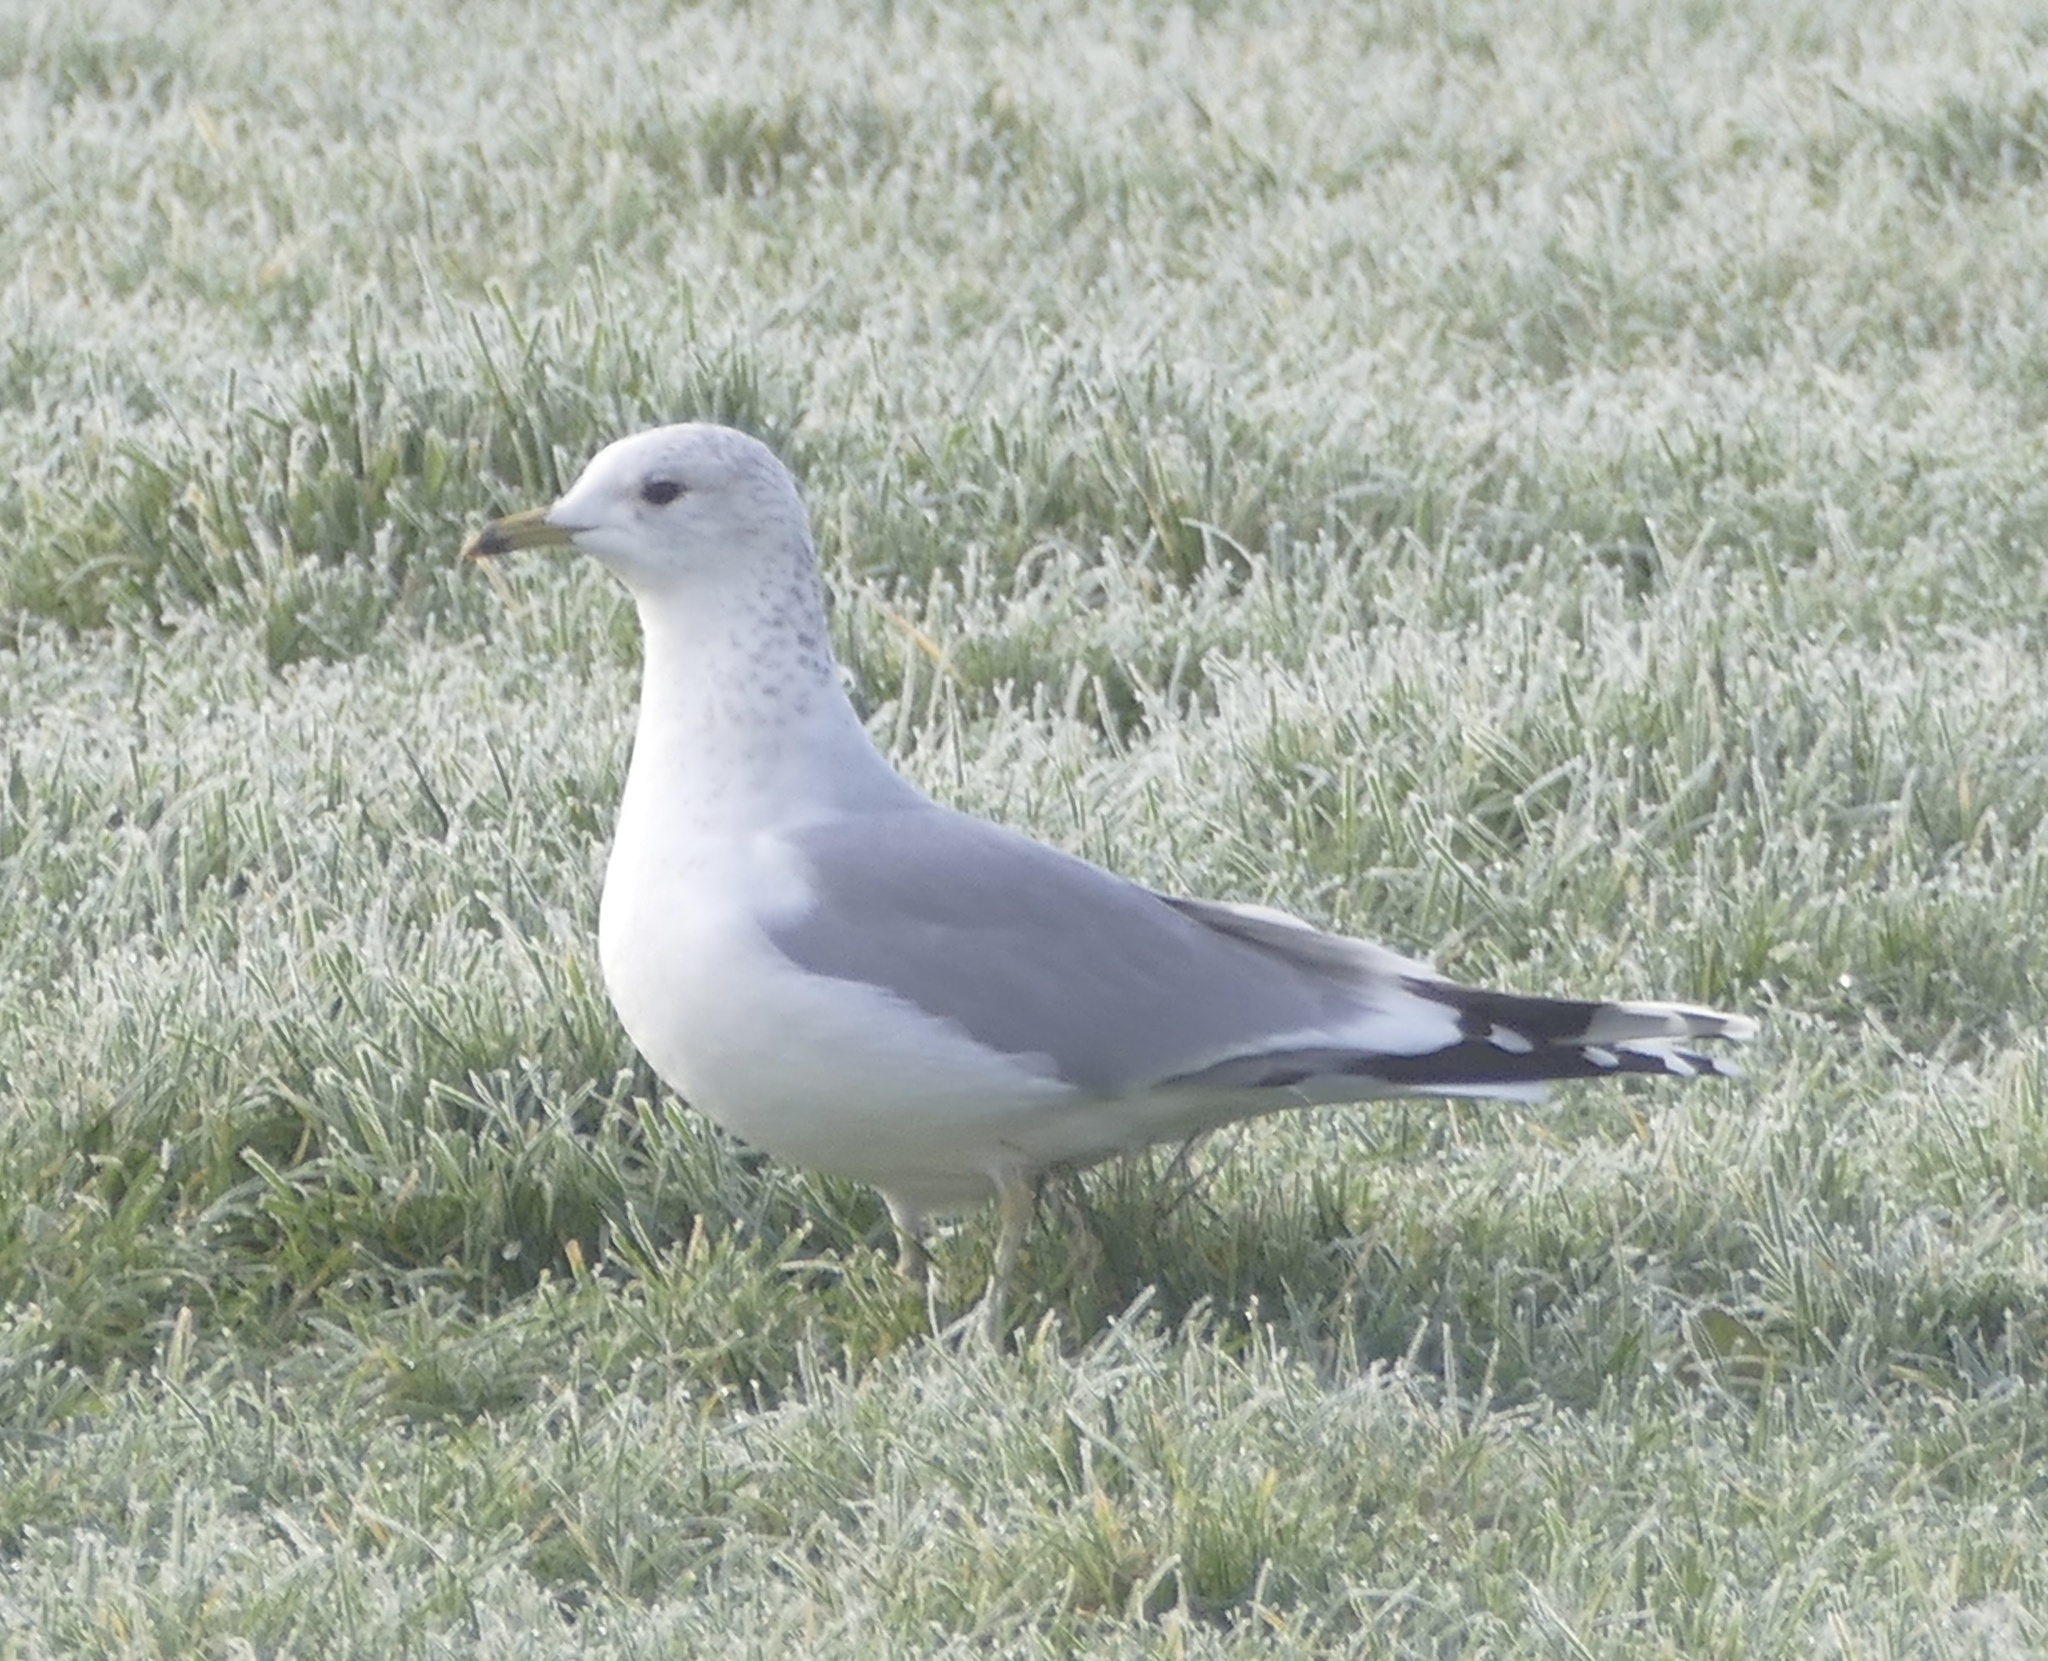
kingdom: Animalia
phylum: Chordata
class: Aves
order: Charadriiformes
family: Laridae
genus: Larus
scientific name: Larus canus
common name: Mew gull
